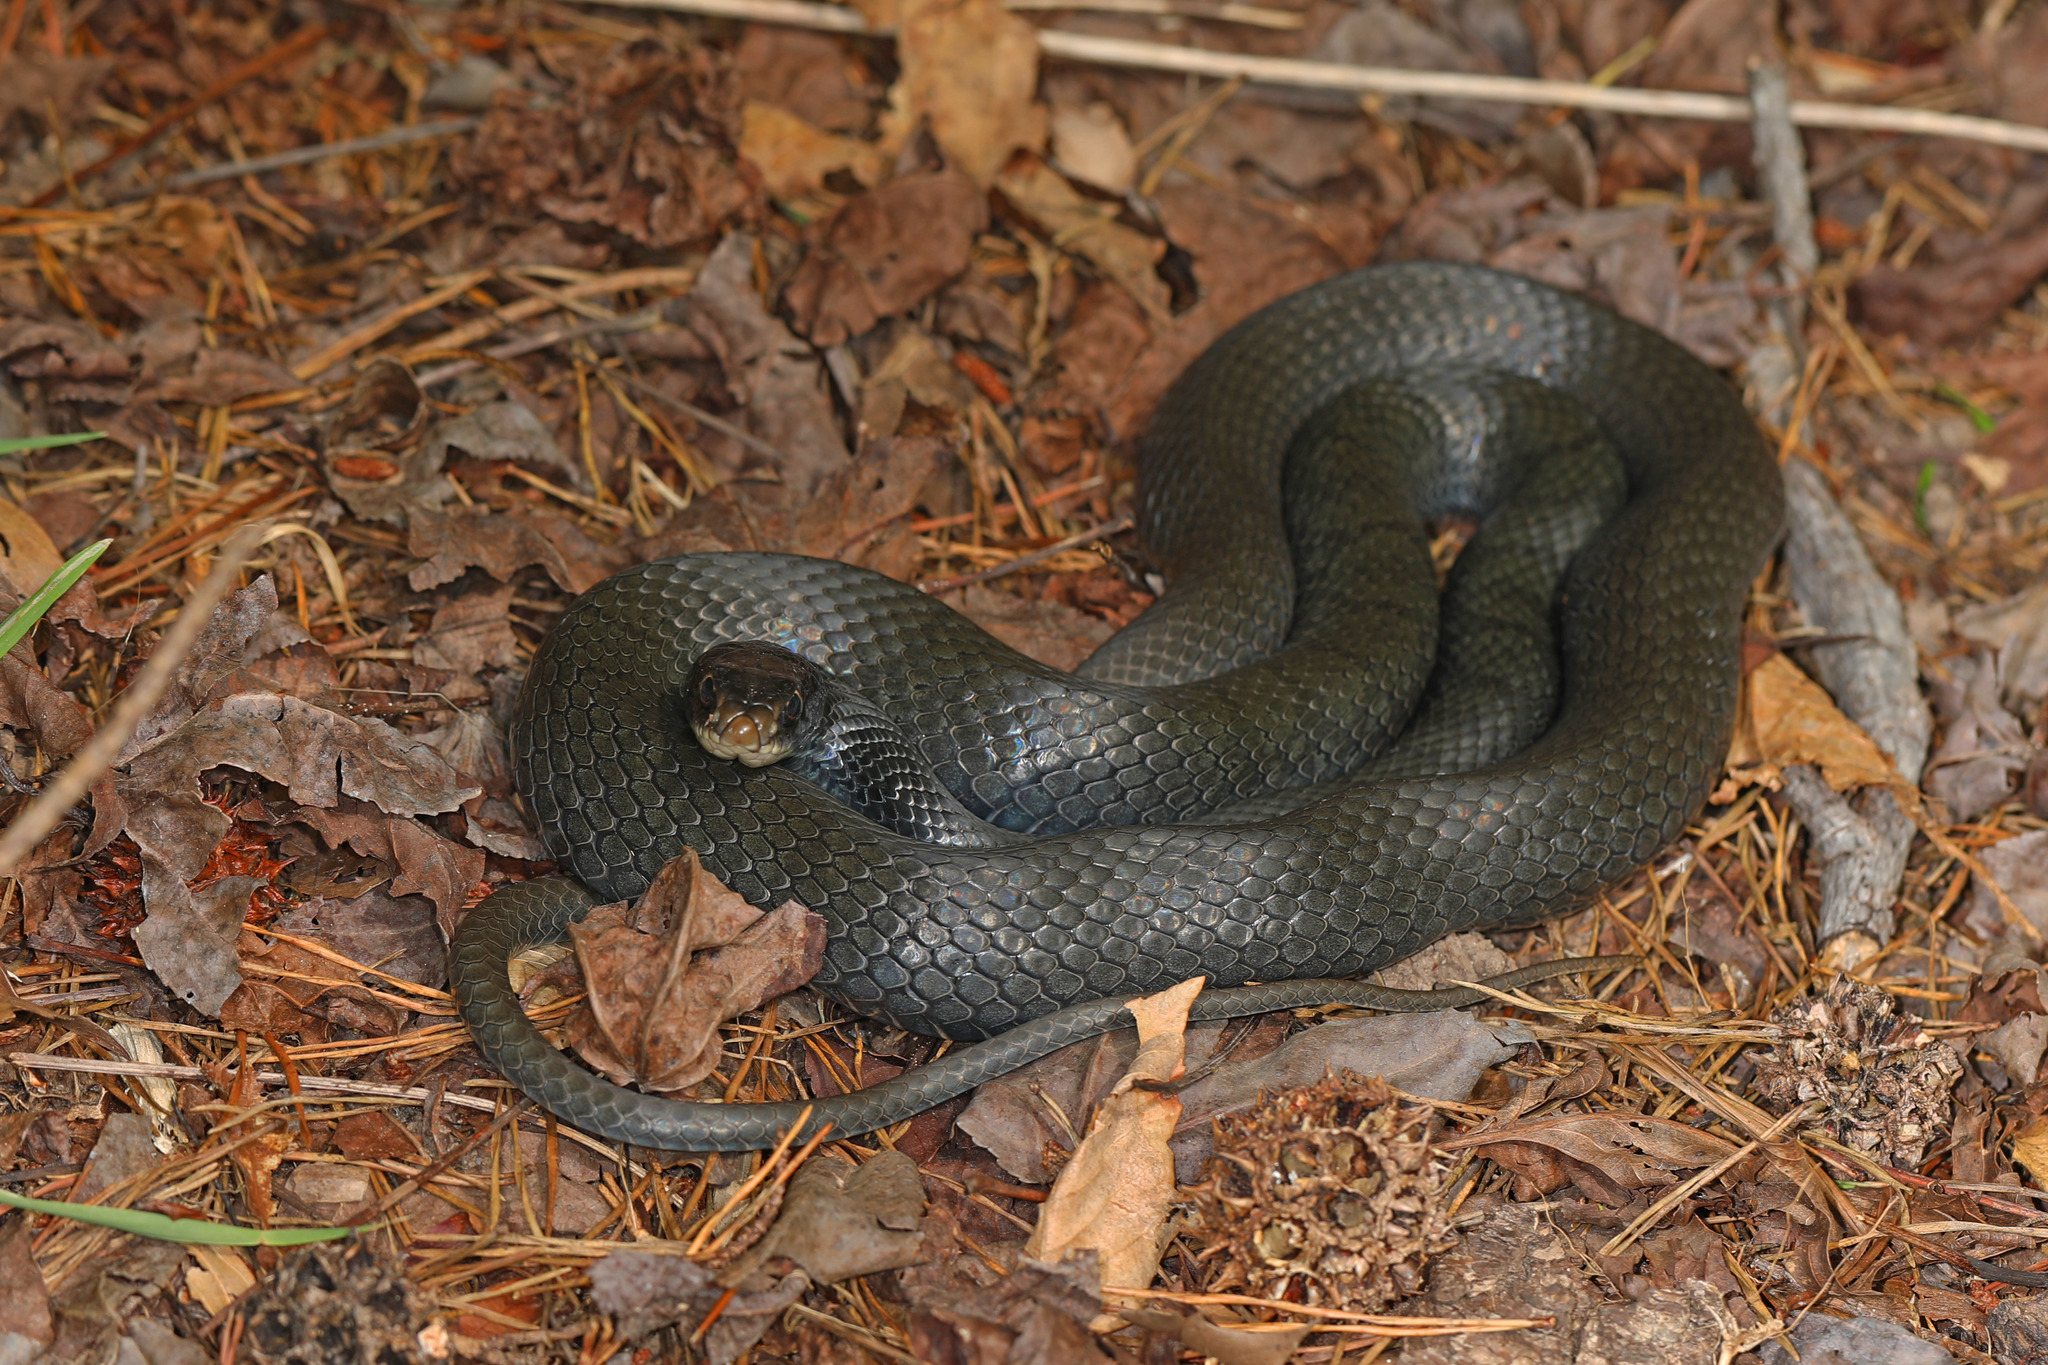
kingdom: Animalia
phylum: Chordata
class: Squamata
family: Colubridae
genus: Coluber
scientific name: Coluber constrictor
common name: Eastern racer
